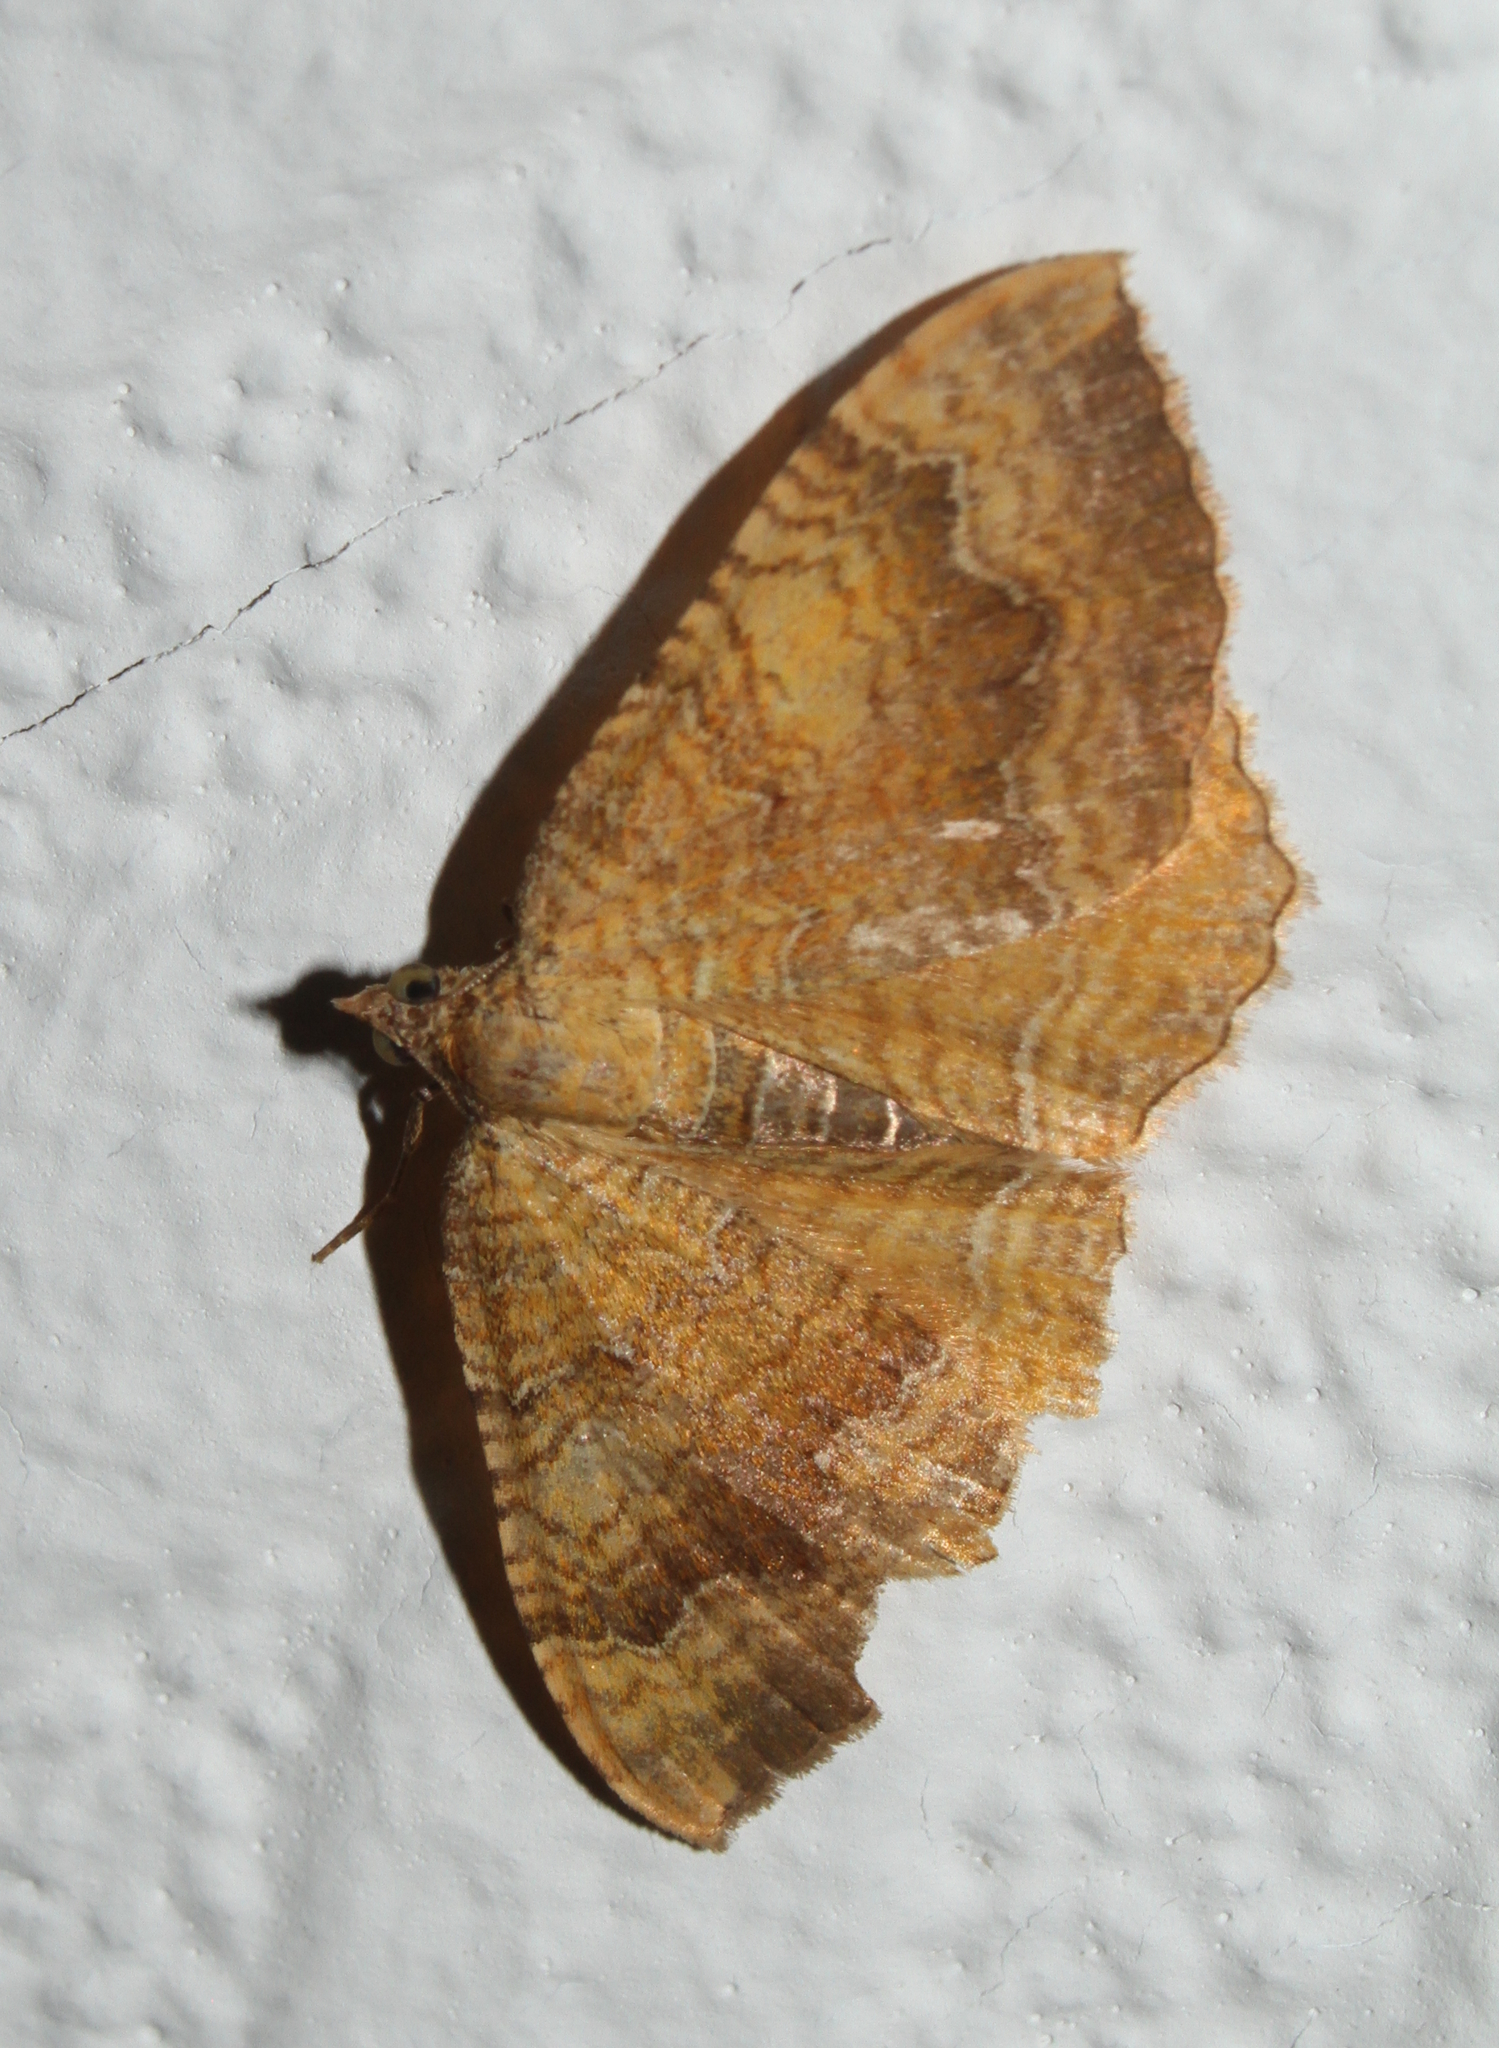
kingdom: Animalia
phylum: Arthropoda
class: Insecta
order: Lepidoptera
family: Geometridae
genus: Camptogramma
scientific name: Camptogramma bilineata
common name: Yellow shell
